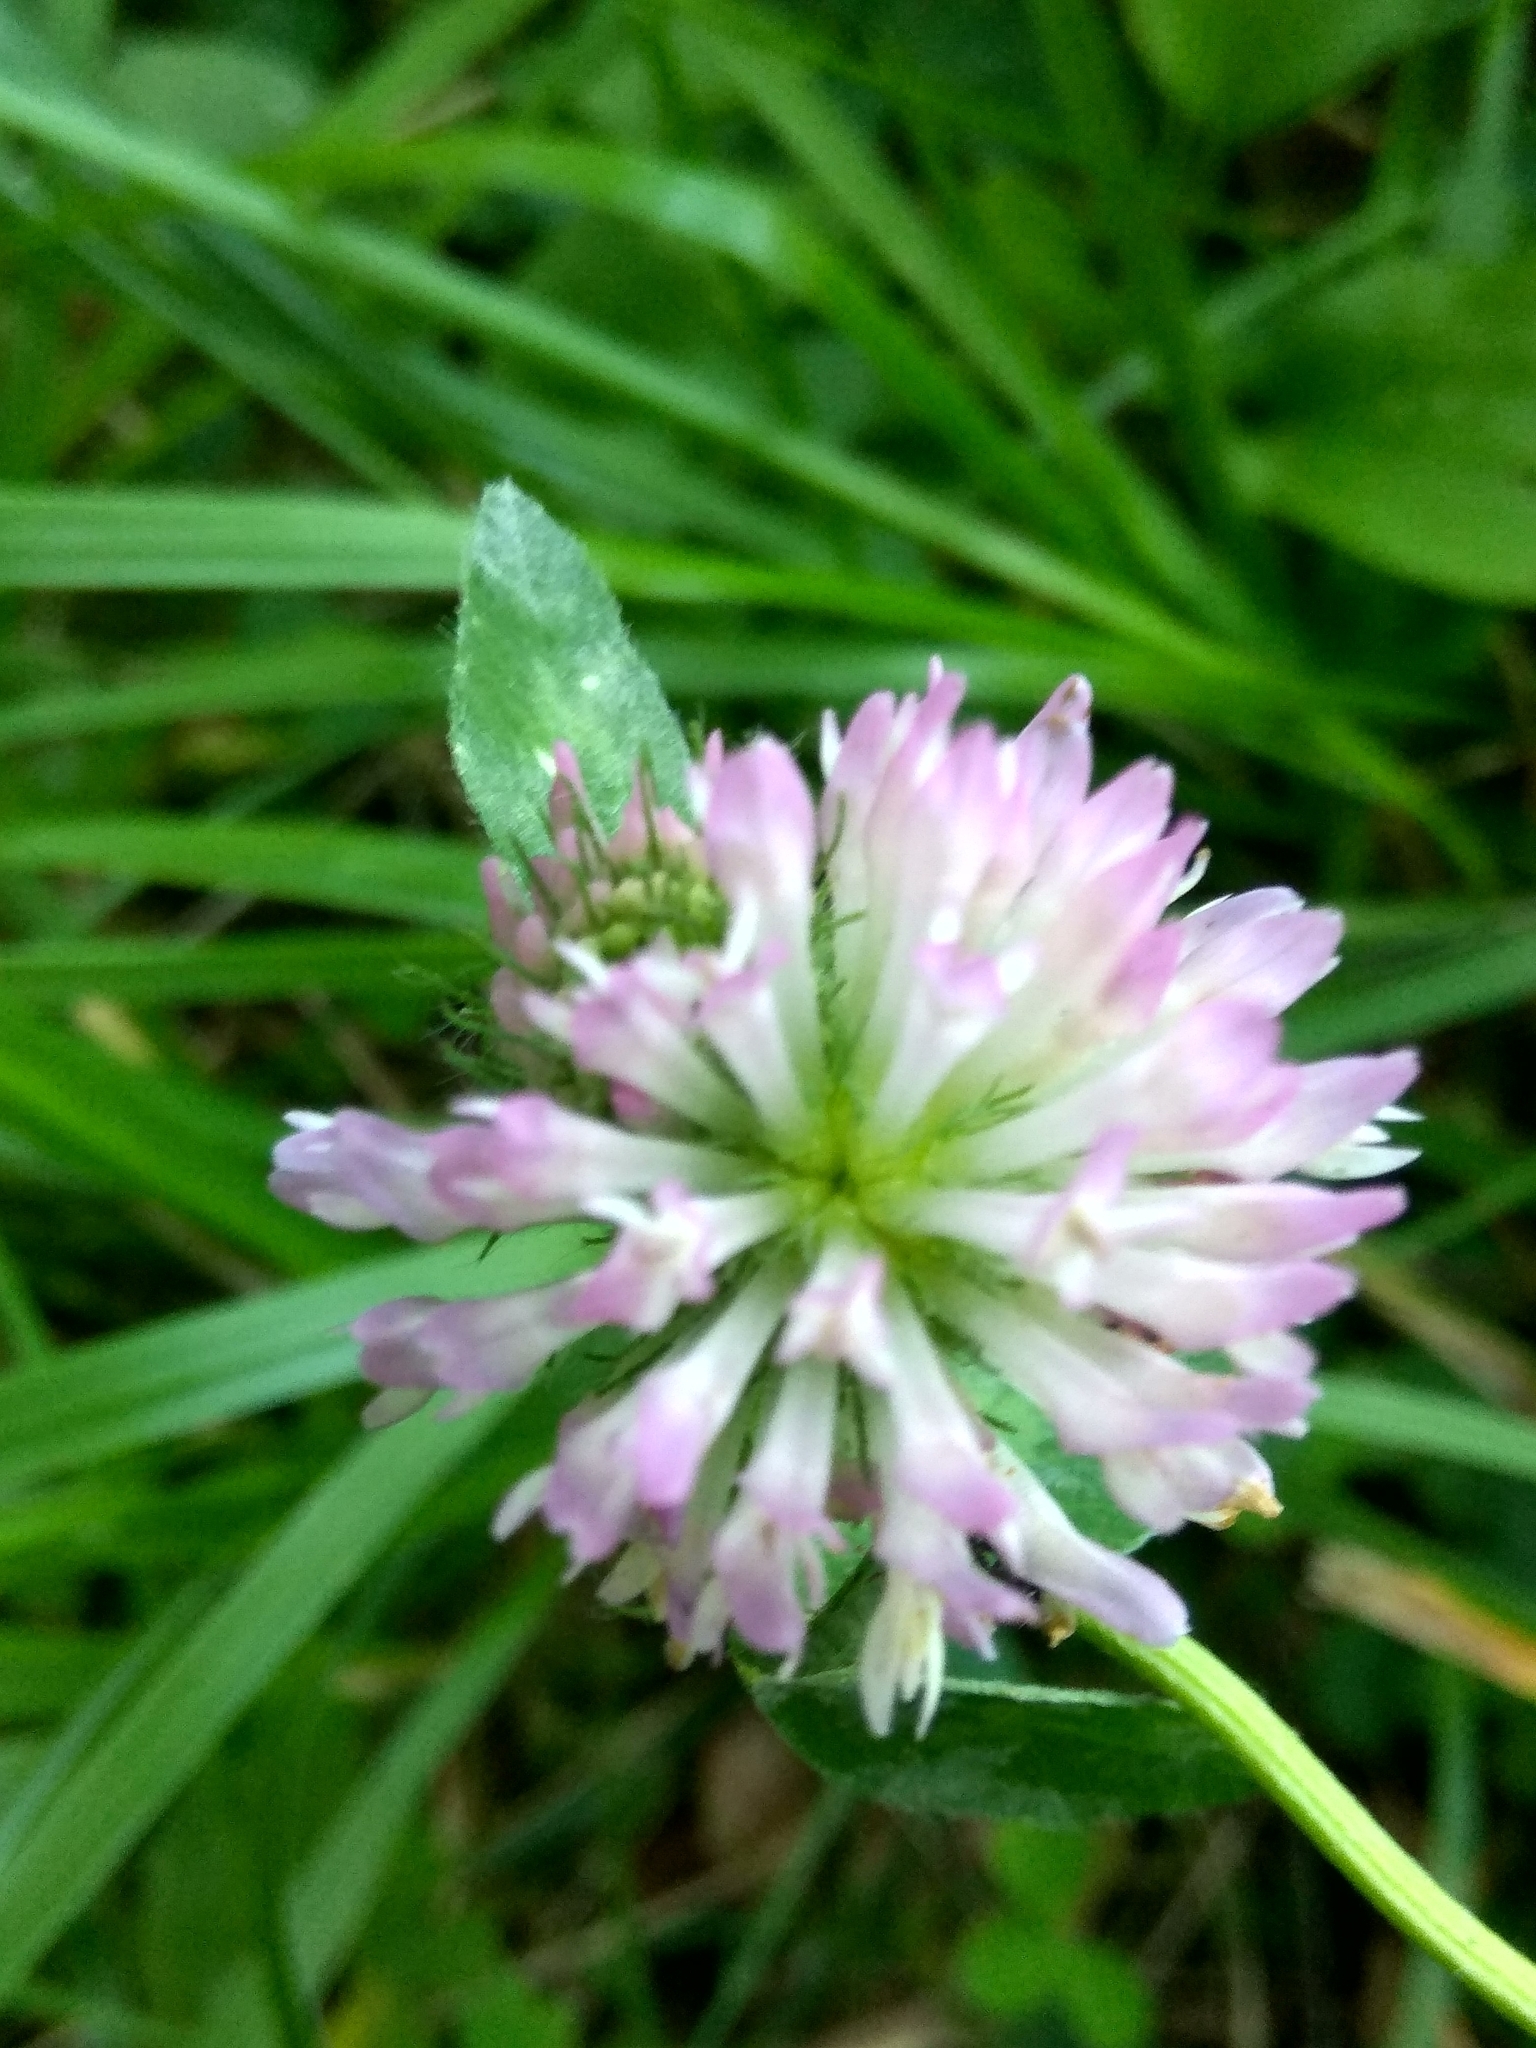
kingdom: Plantae
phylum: Tracheophyta
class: Magnoliopsida
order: Fabales
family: Fabaceae
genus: Trifolium
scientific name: Trifolium pratense
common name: Red clover
